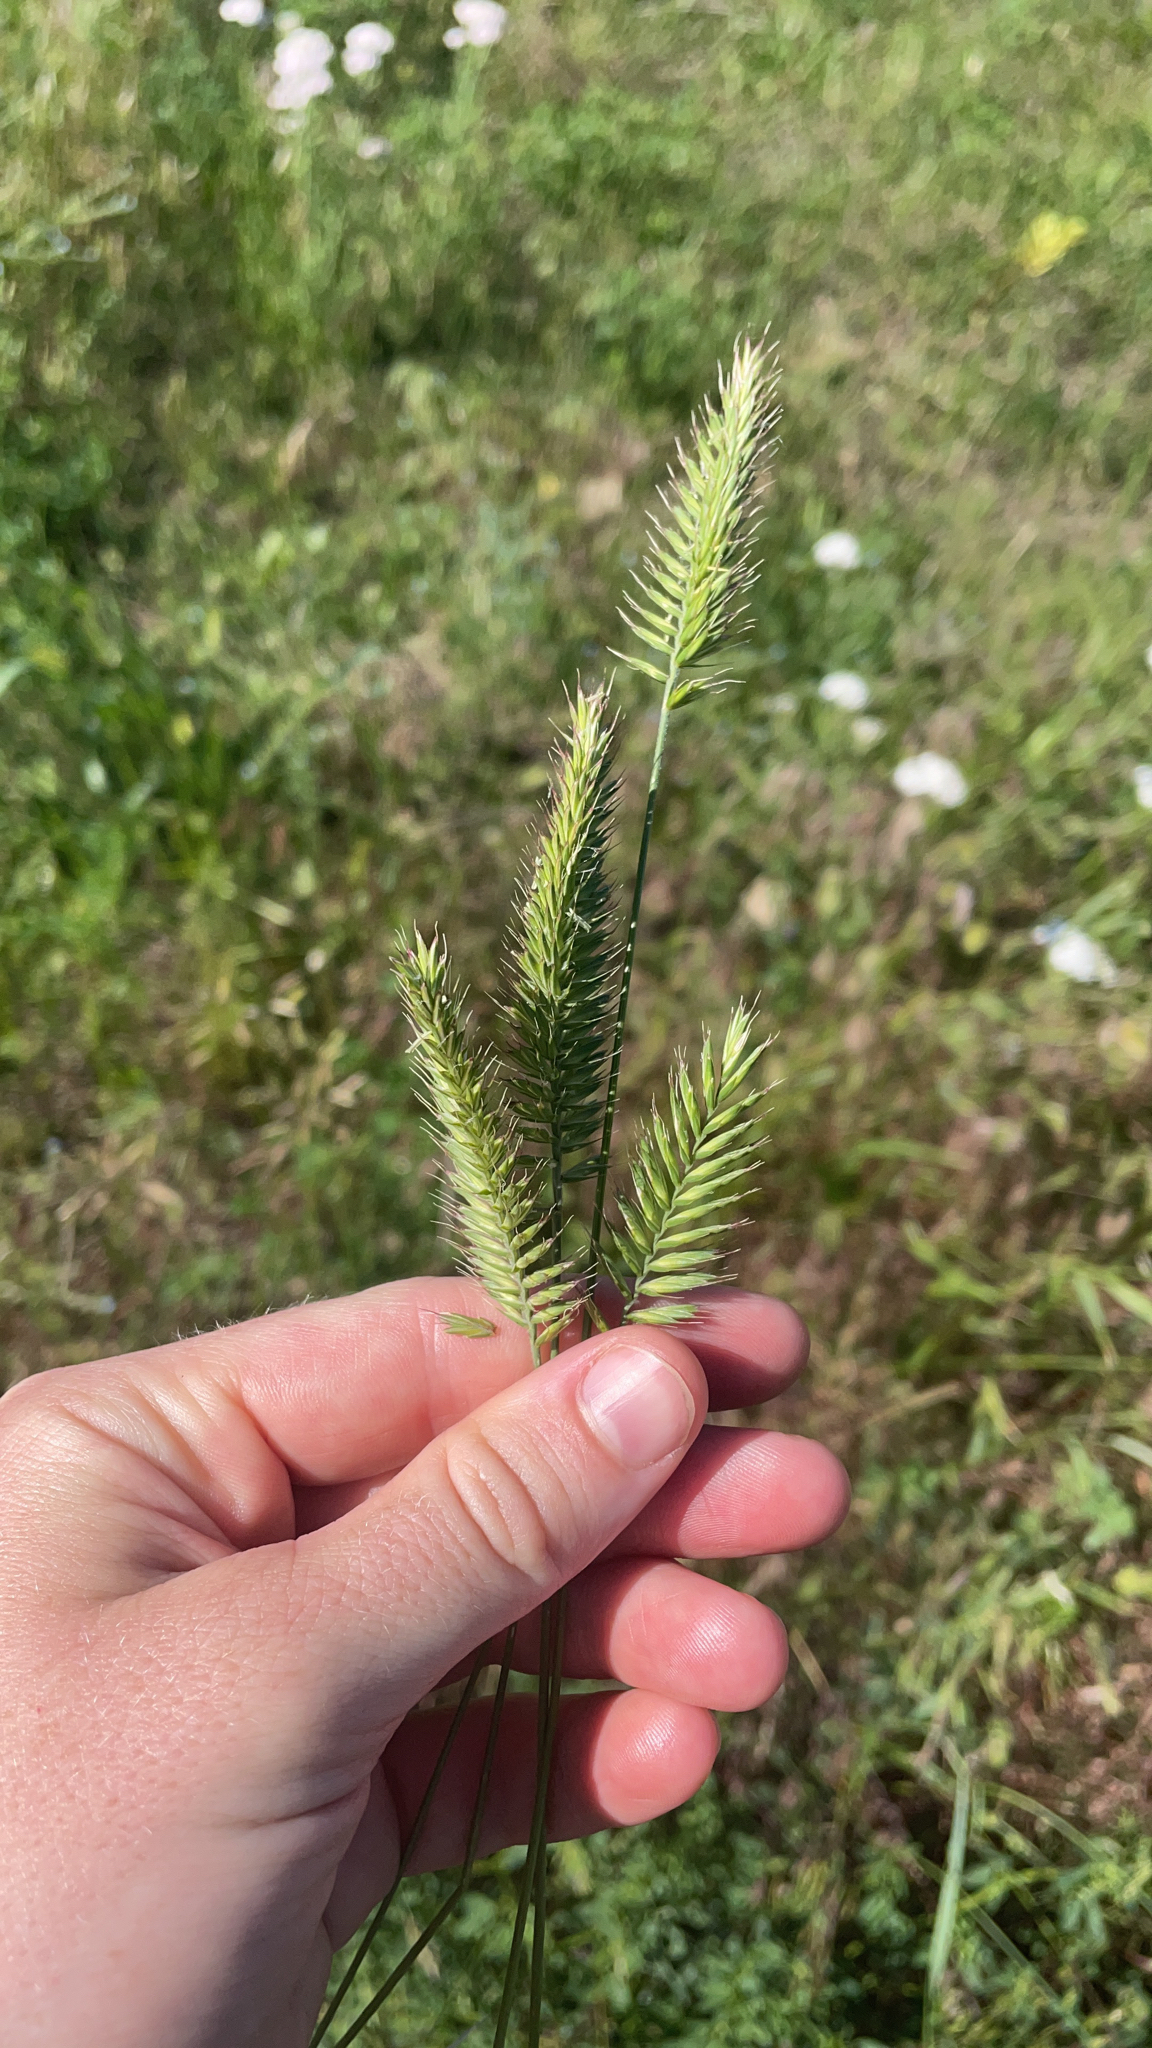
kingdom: Plantae
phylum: Tracheophyta
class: Liliopsida
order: Poales
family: Poaceae
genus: Agropyron
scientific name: Agropyron cristatum
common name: Crested wheatgrass
